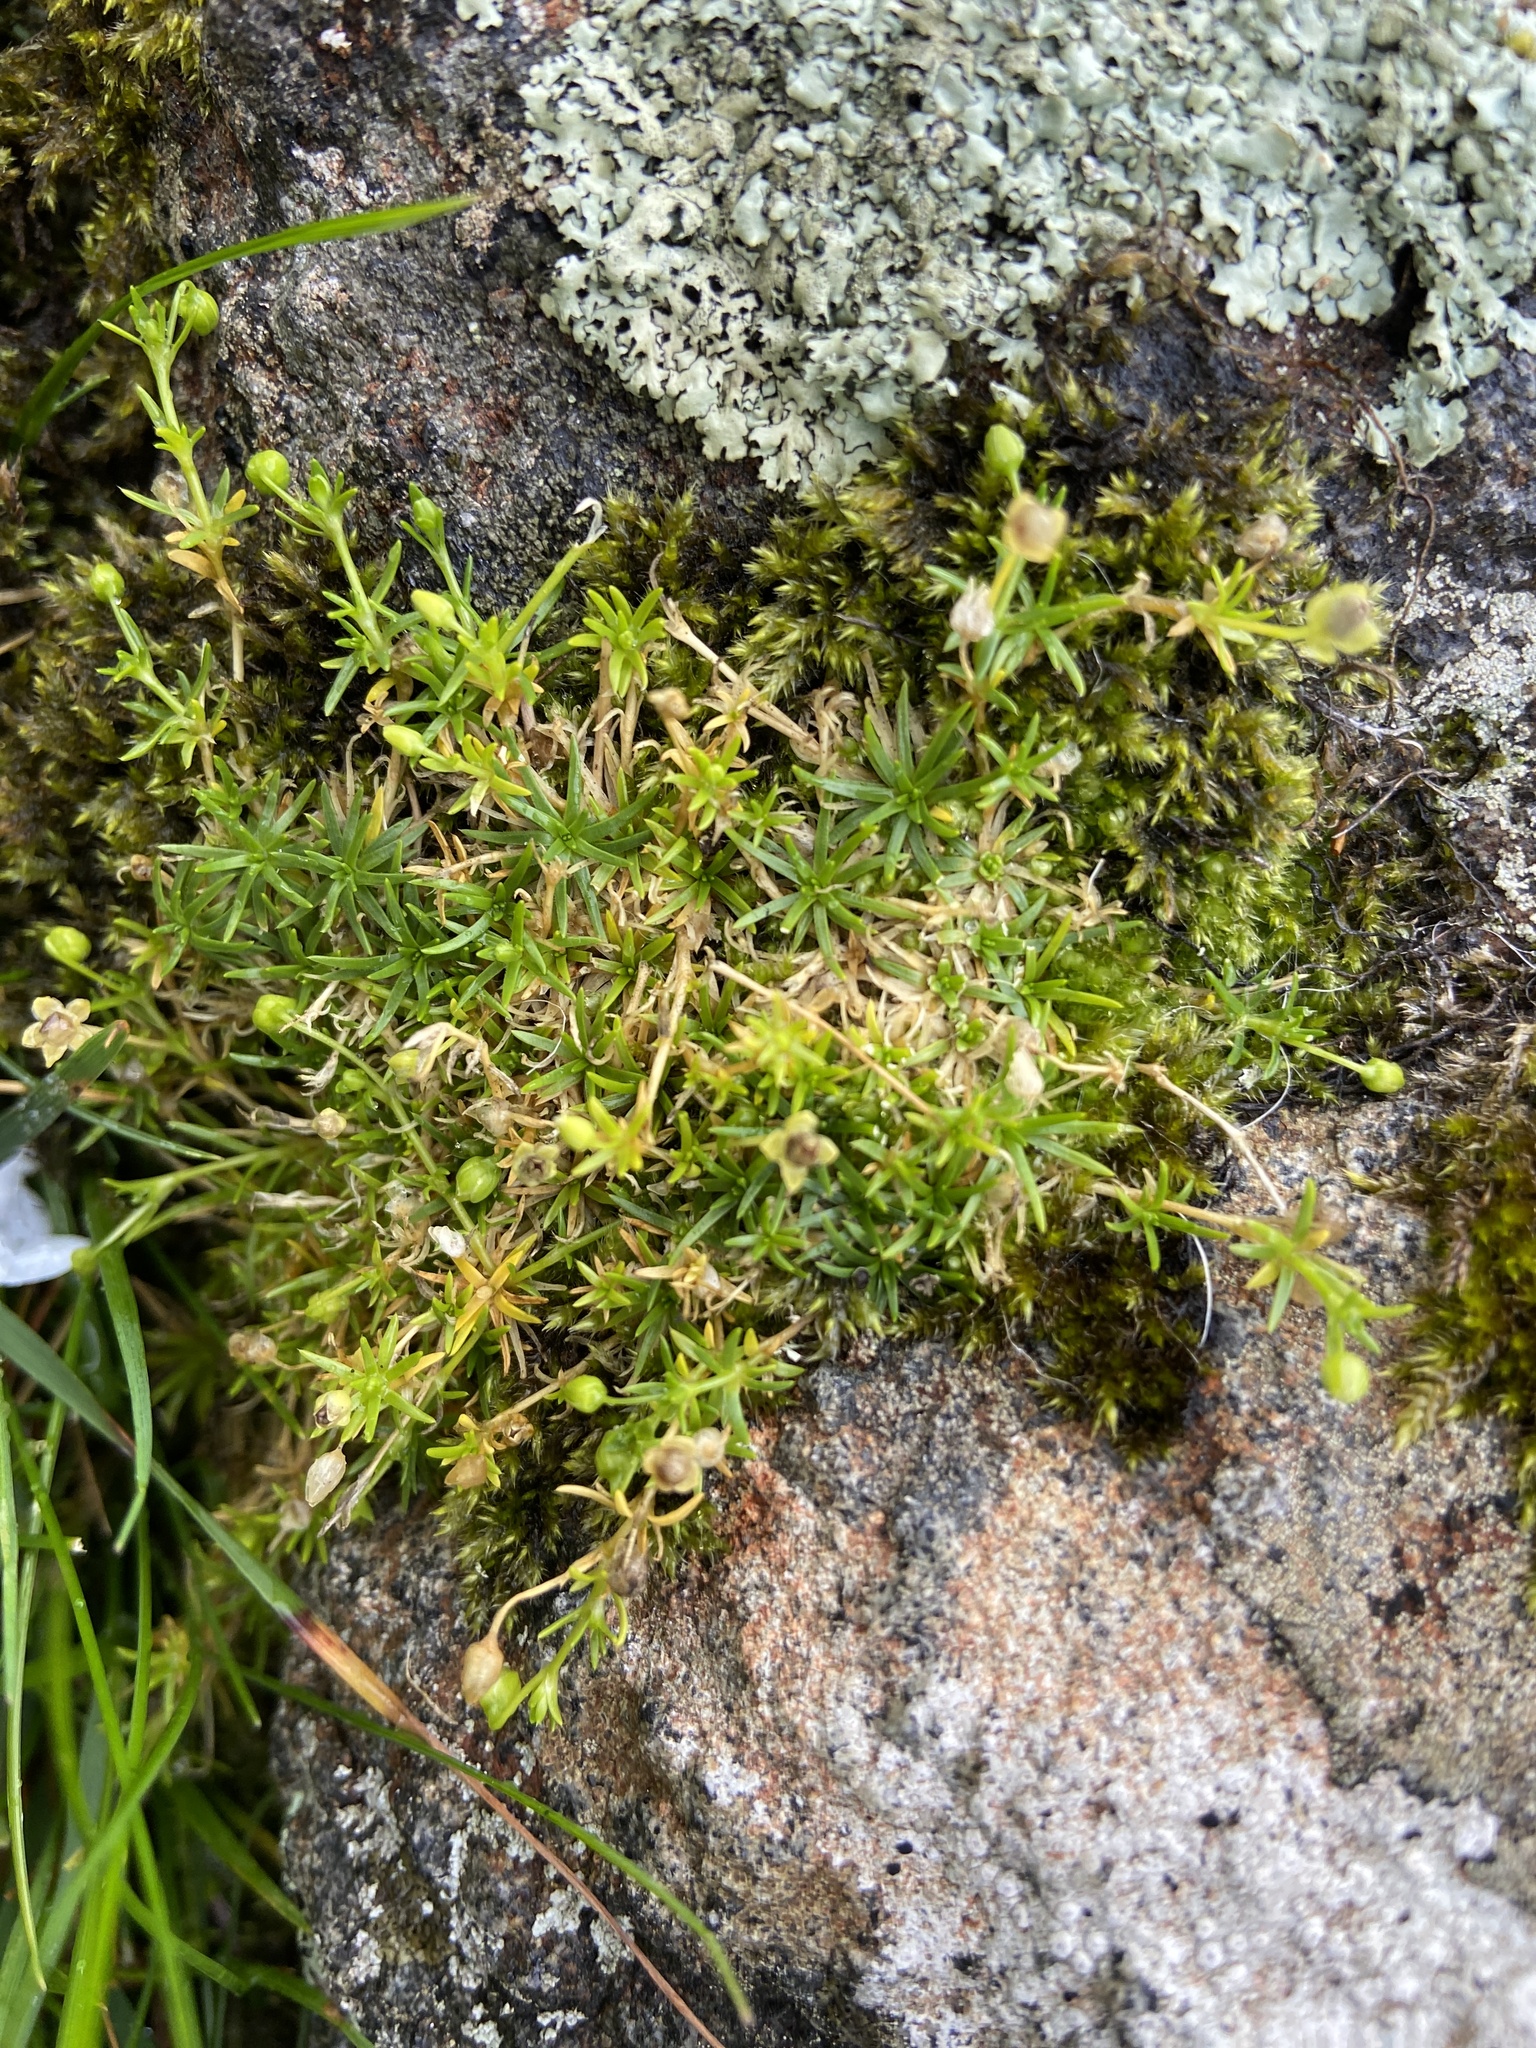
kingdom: Plantae
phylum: Tracheophyta
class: Magnoliopsida
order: Caryophyllales
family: Caryophyllaceae
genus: Sagina
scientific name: Sagina procumbens
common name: Procumbent pearlwort
